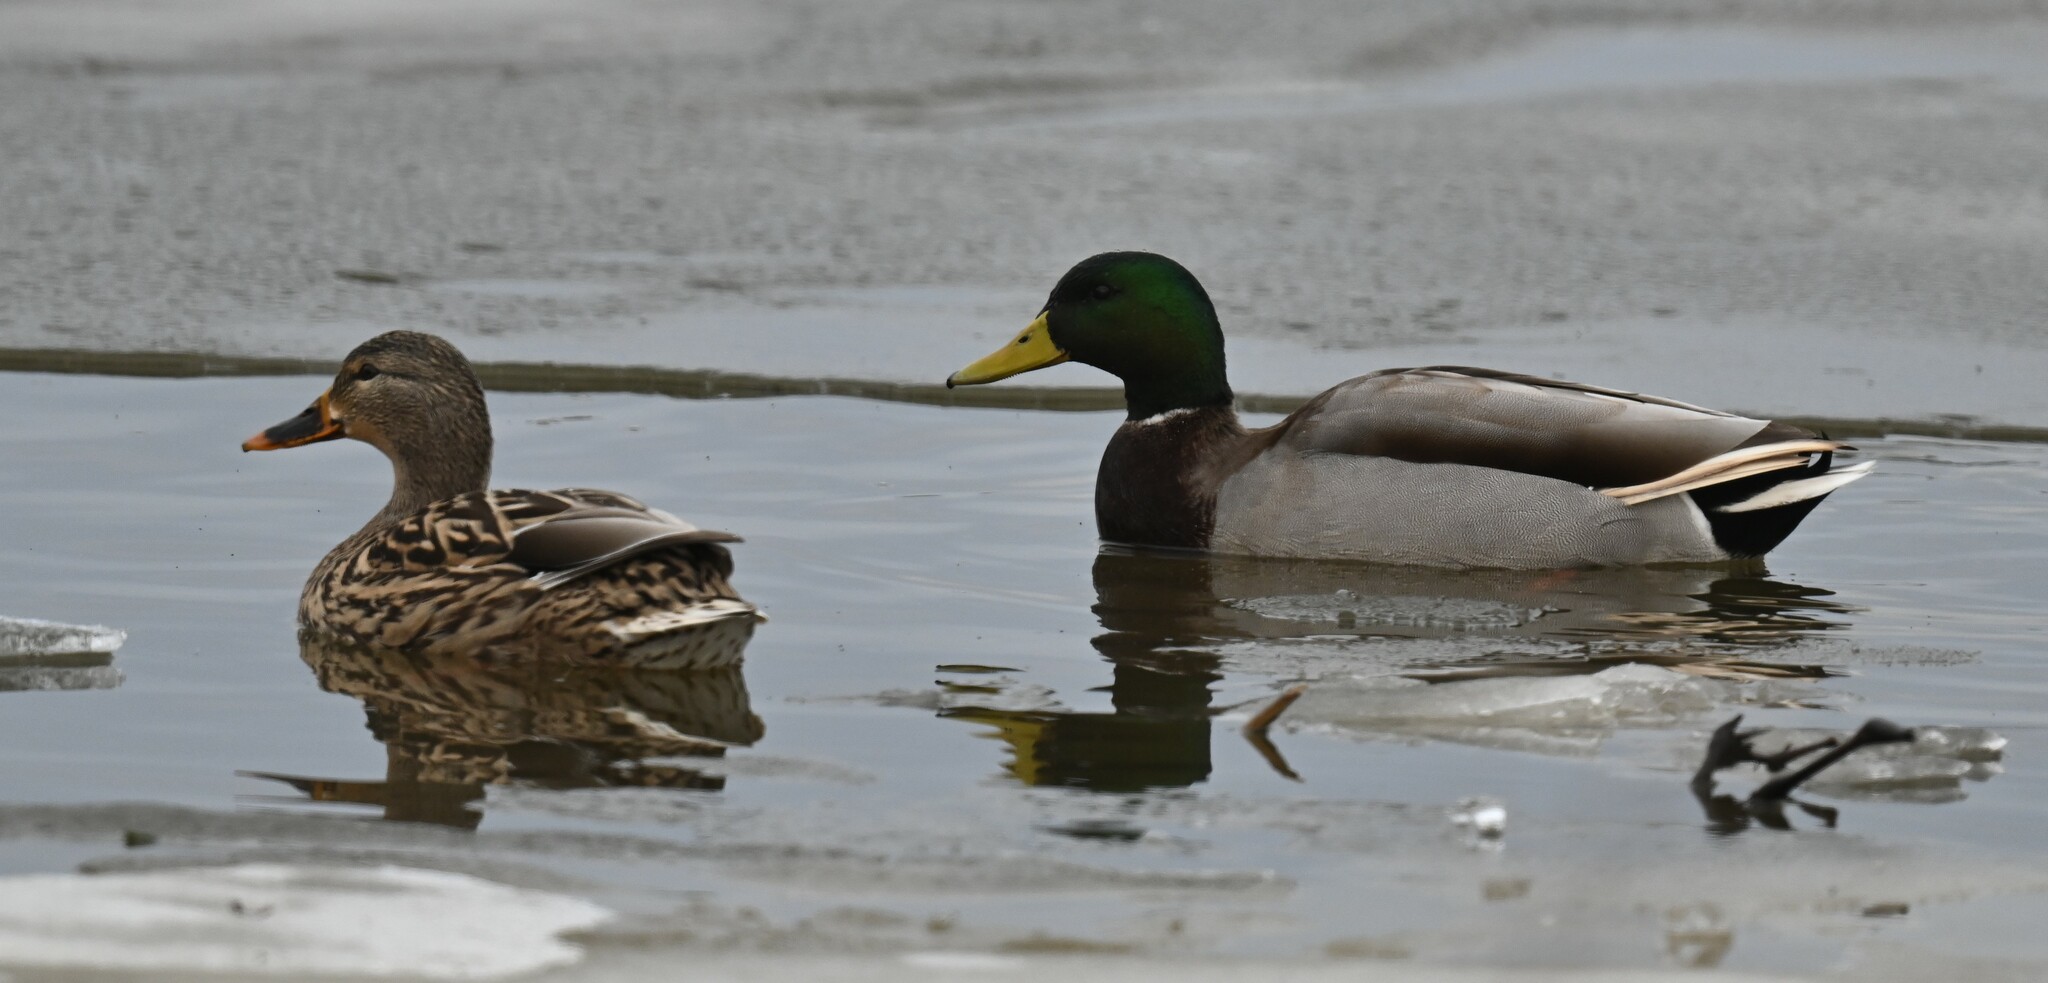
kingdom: Animalia
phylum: Chordata
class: Aves
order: Anseriformes
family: Anatidae
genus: Anas
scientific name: Anas platyrhynchos
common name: Mallard
